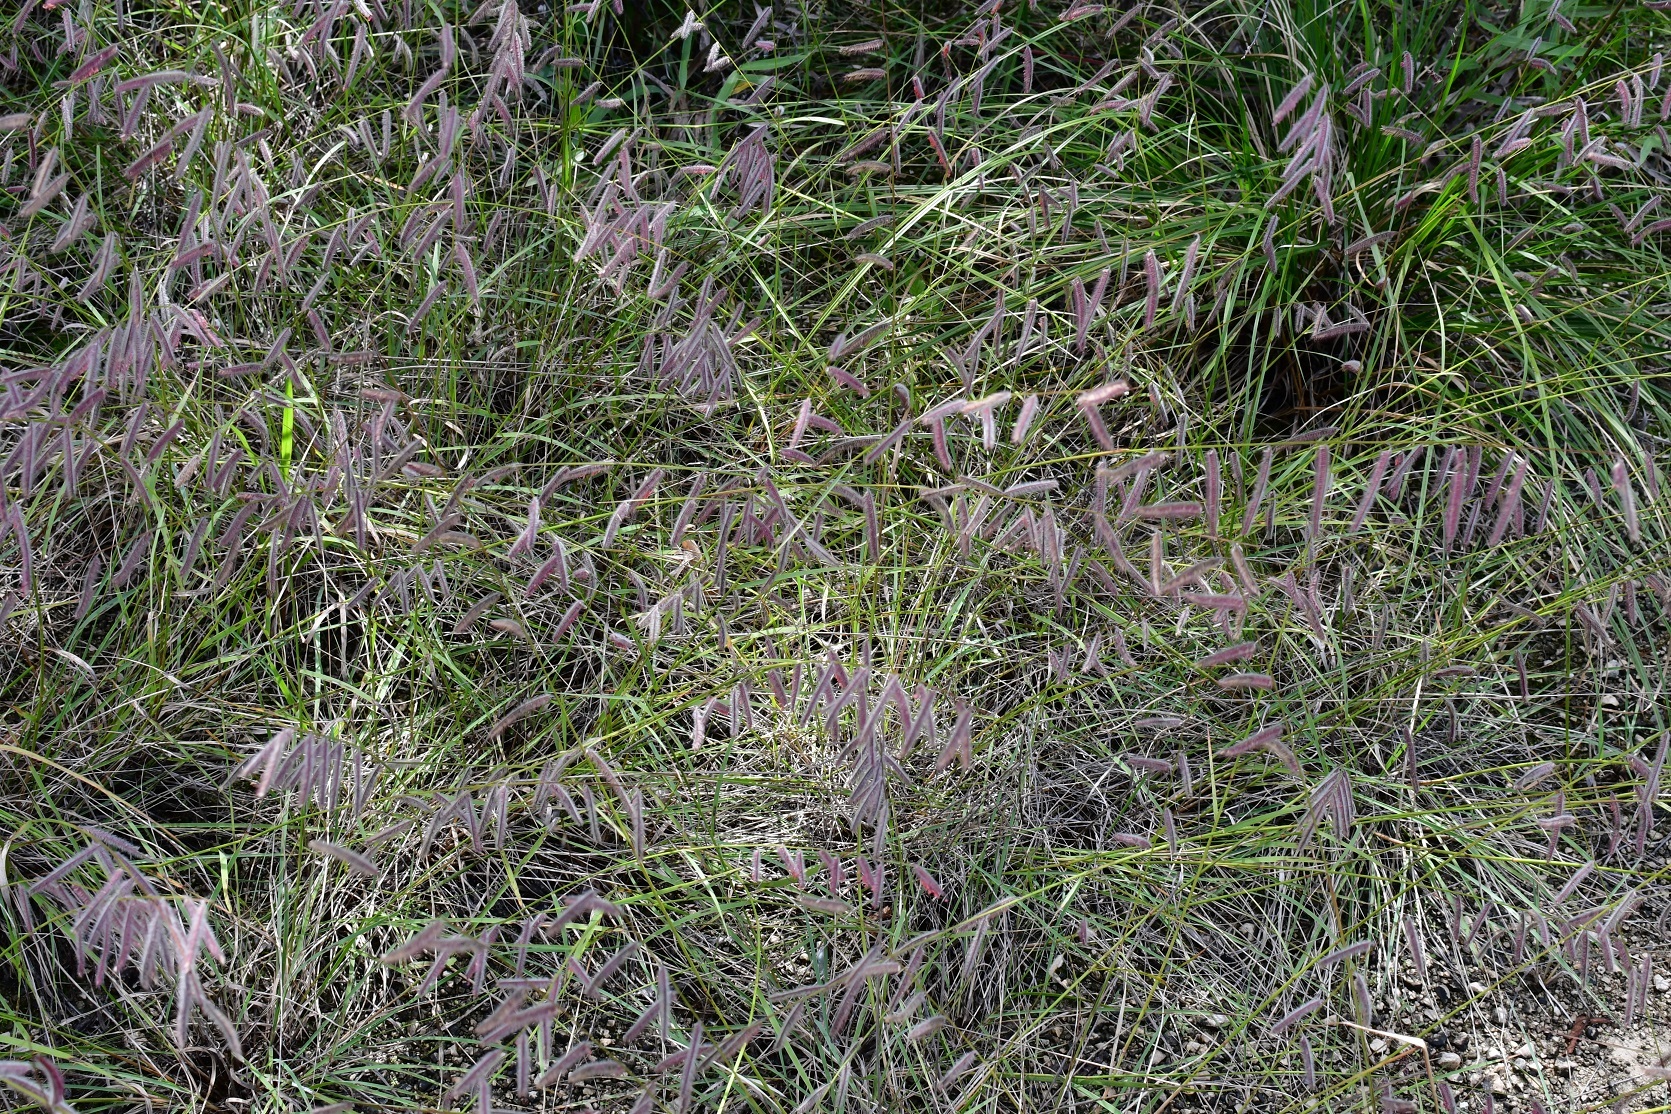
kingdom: Plantae
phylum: Tracheophyta
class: Liliopsida
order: Poales
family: Poaceae
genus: Bouteloua
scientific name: Bouteloua elata
